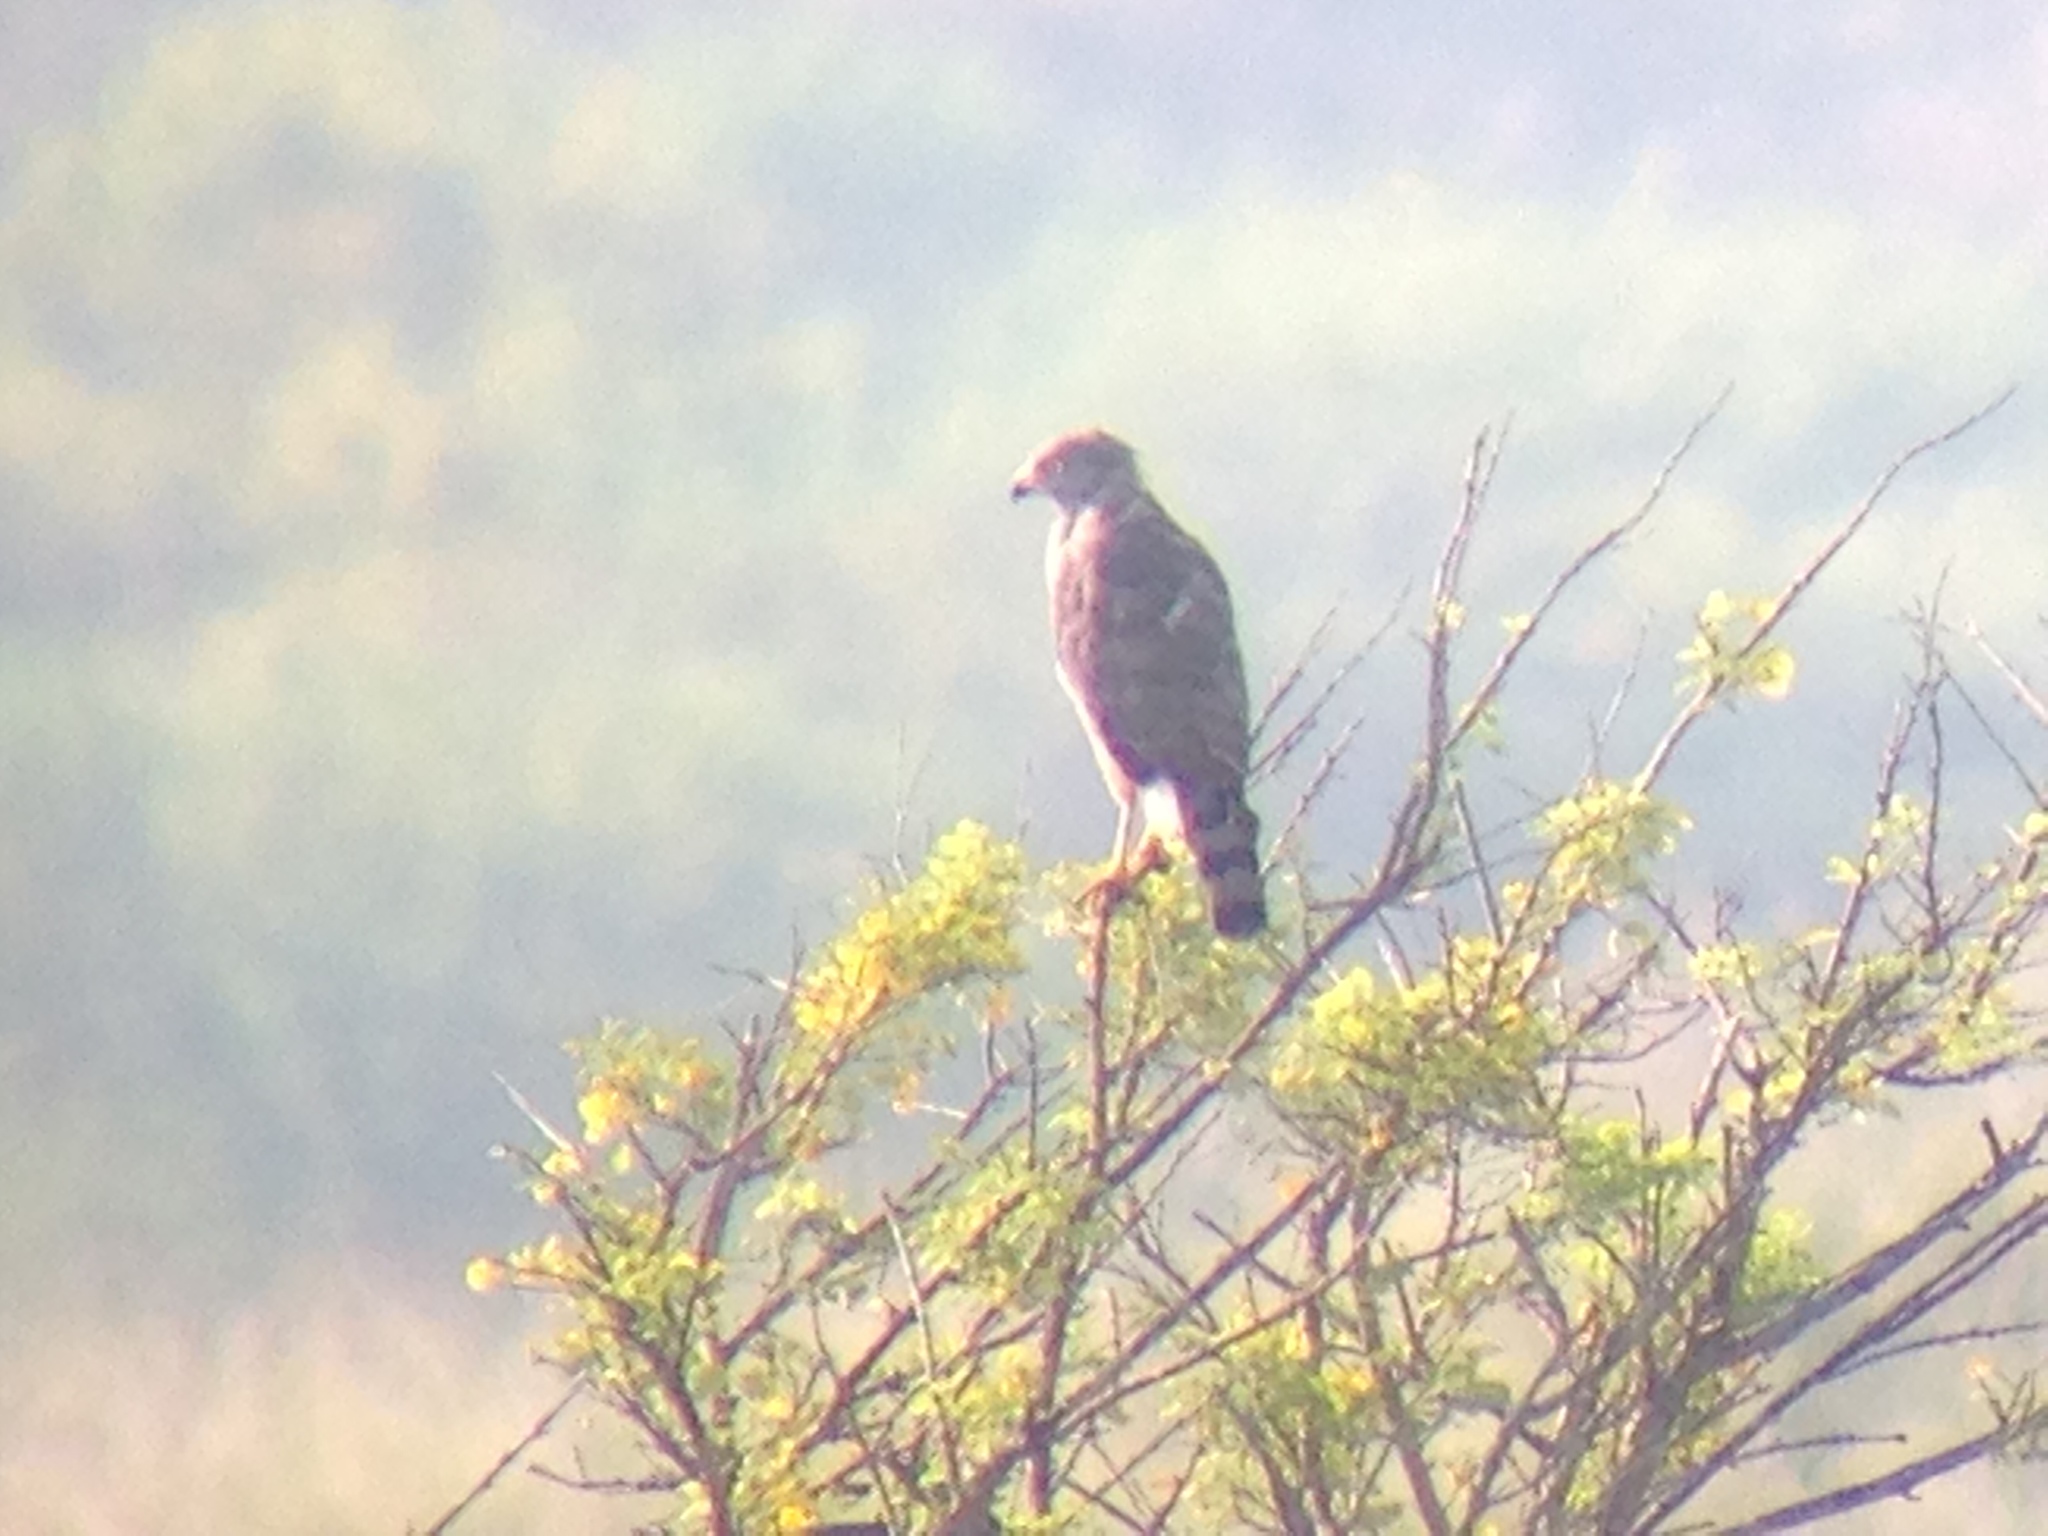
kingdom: Animalia
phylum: Chordata
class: Aves
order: Accipitriformes
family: Accipitridae
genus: Rupornis
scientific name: Rupornis magnirostris
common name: Roadside hawk
